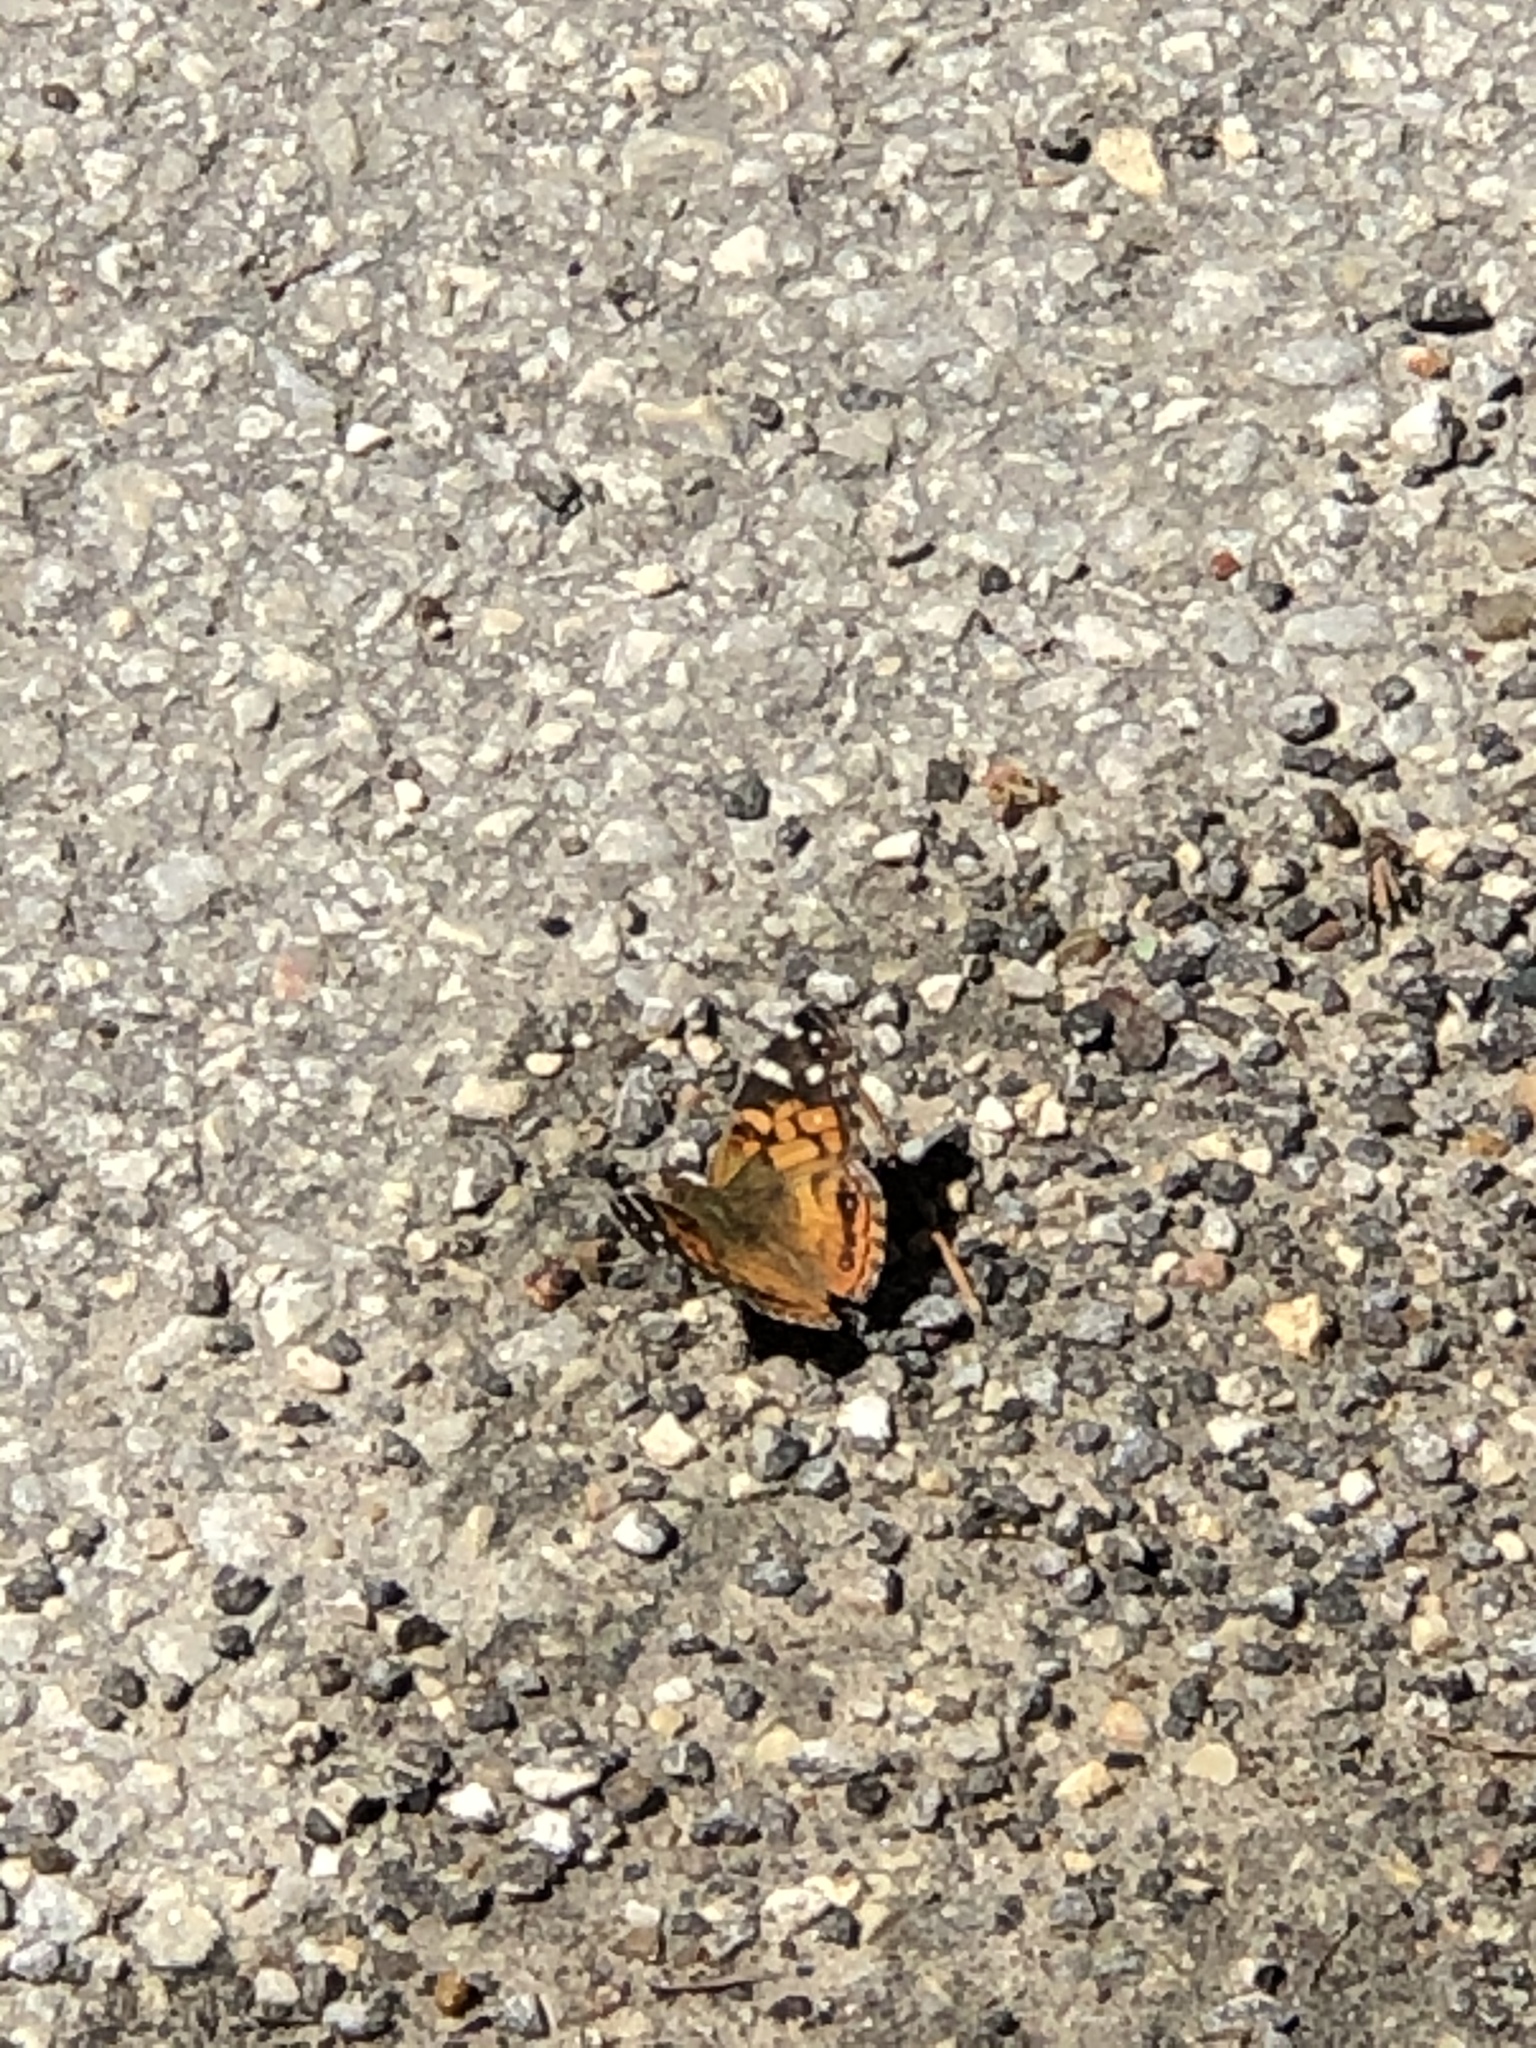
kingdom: Animalia
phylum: Arthropoda
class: Insecta
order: Lepidoptera
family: Nymphalidae
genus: Vanessa
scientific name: Vanessa virginiensis
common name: American lady
